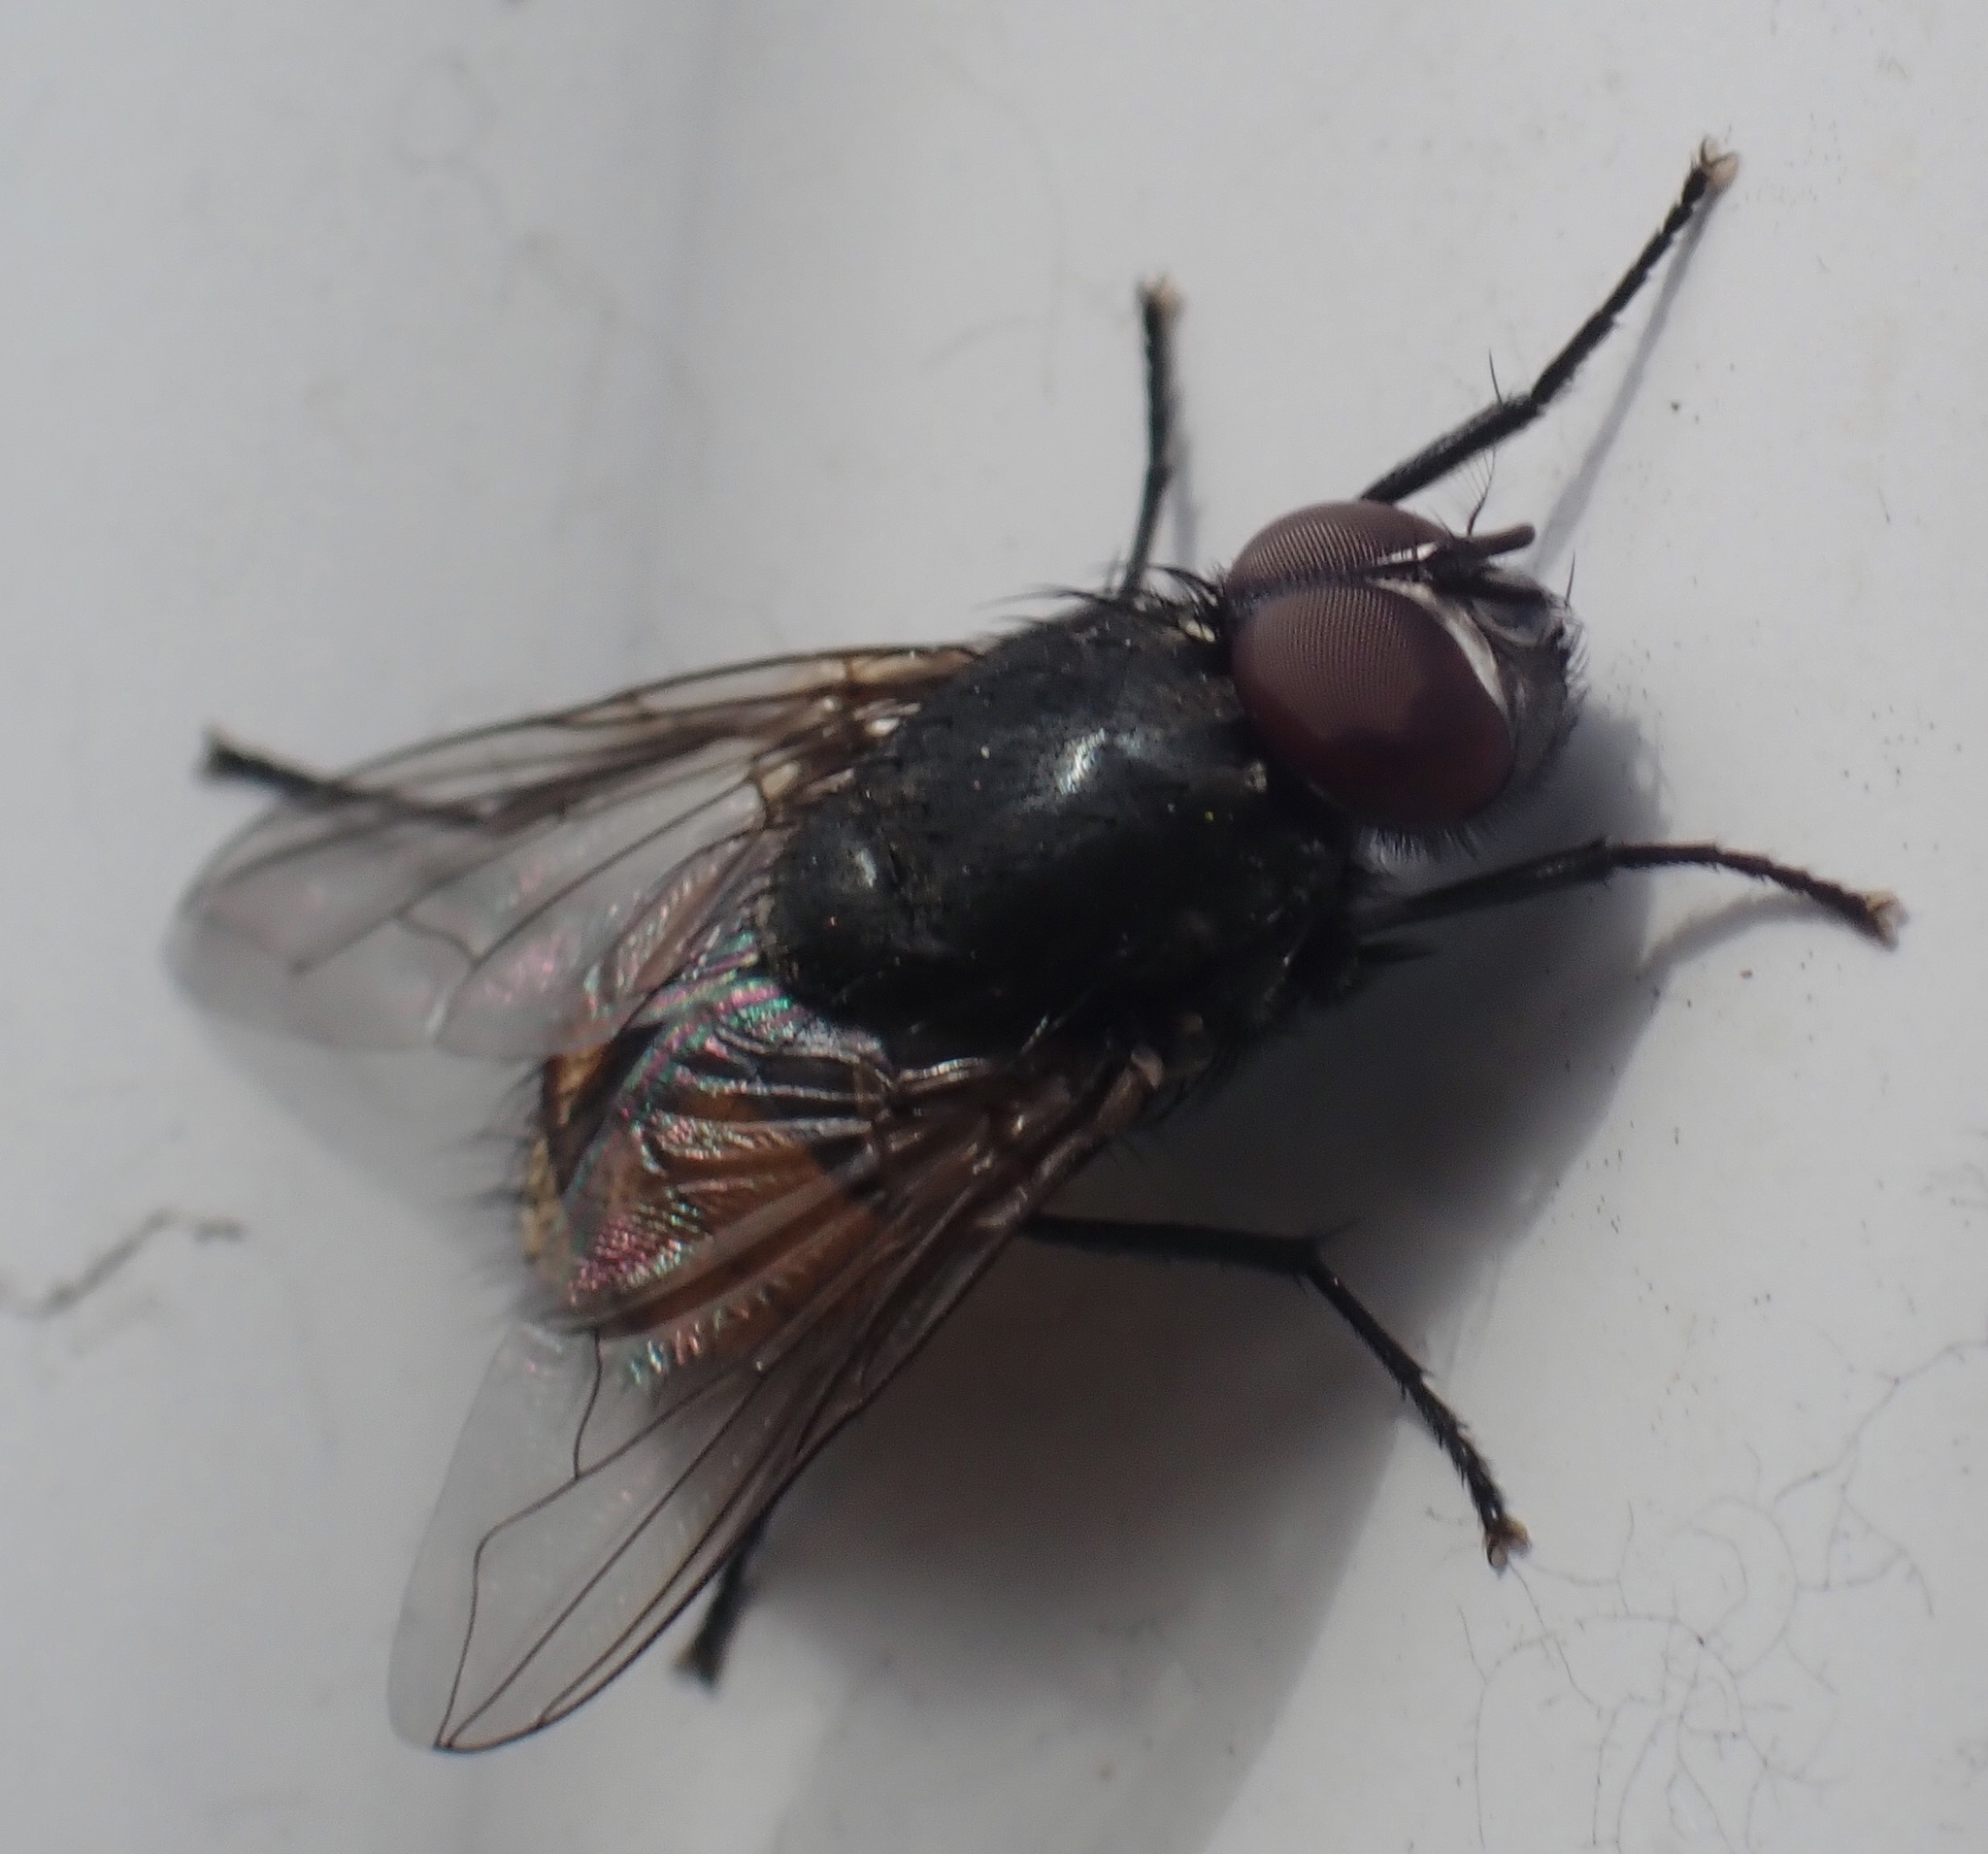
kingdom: Animalia
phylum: Arthropoda
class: Insecta
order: Diptera
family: Muscidae
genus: Musca
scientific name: Musca autumnalis
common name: Face fly
